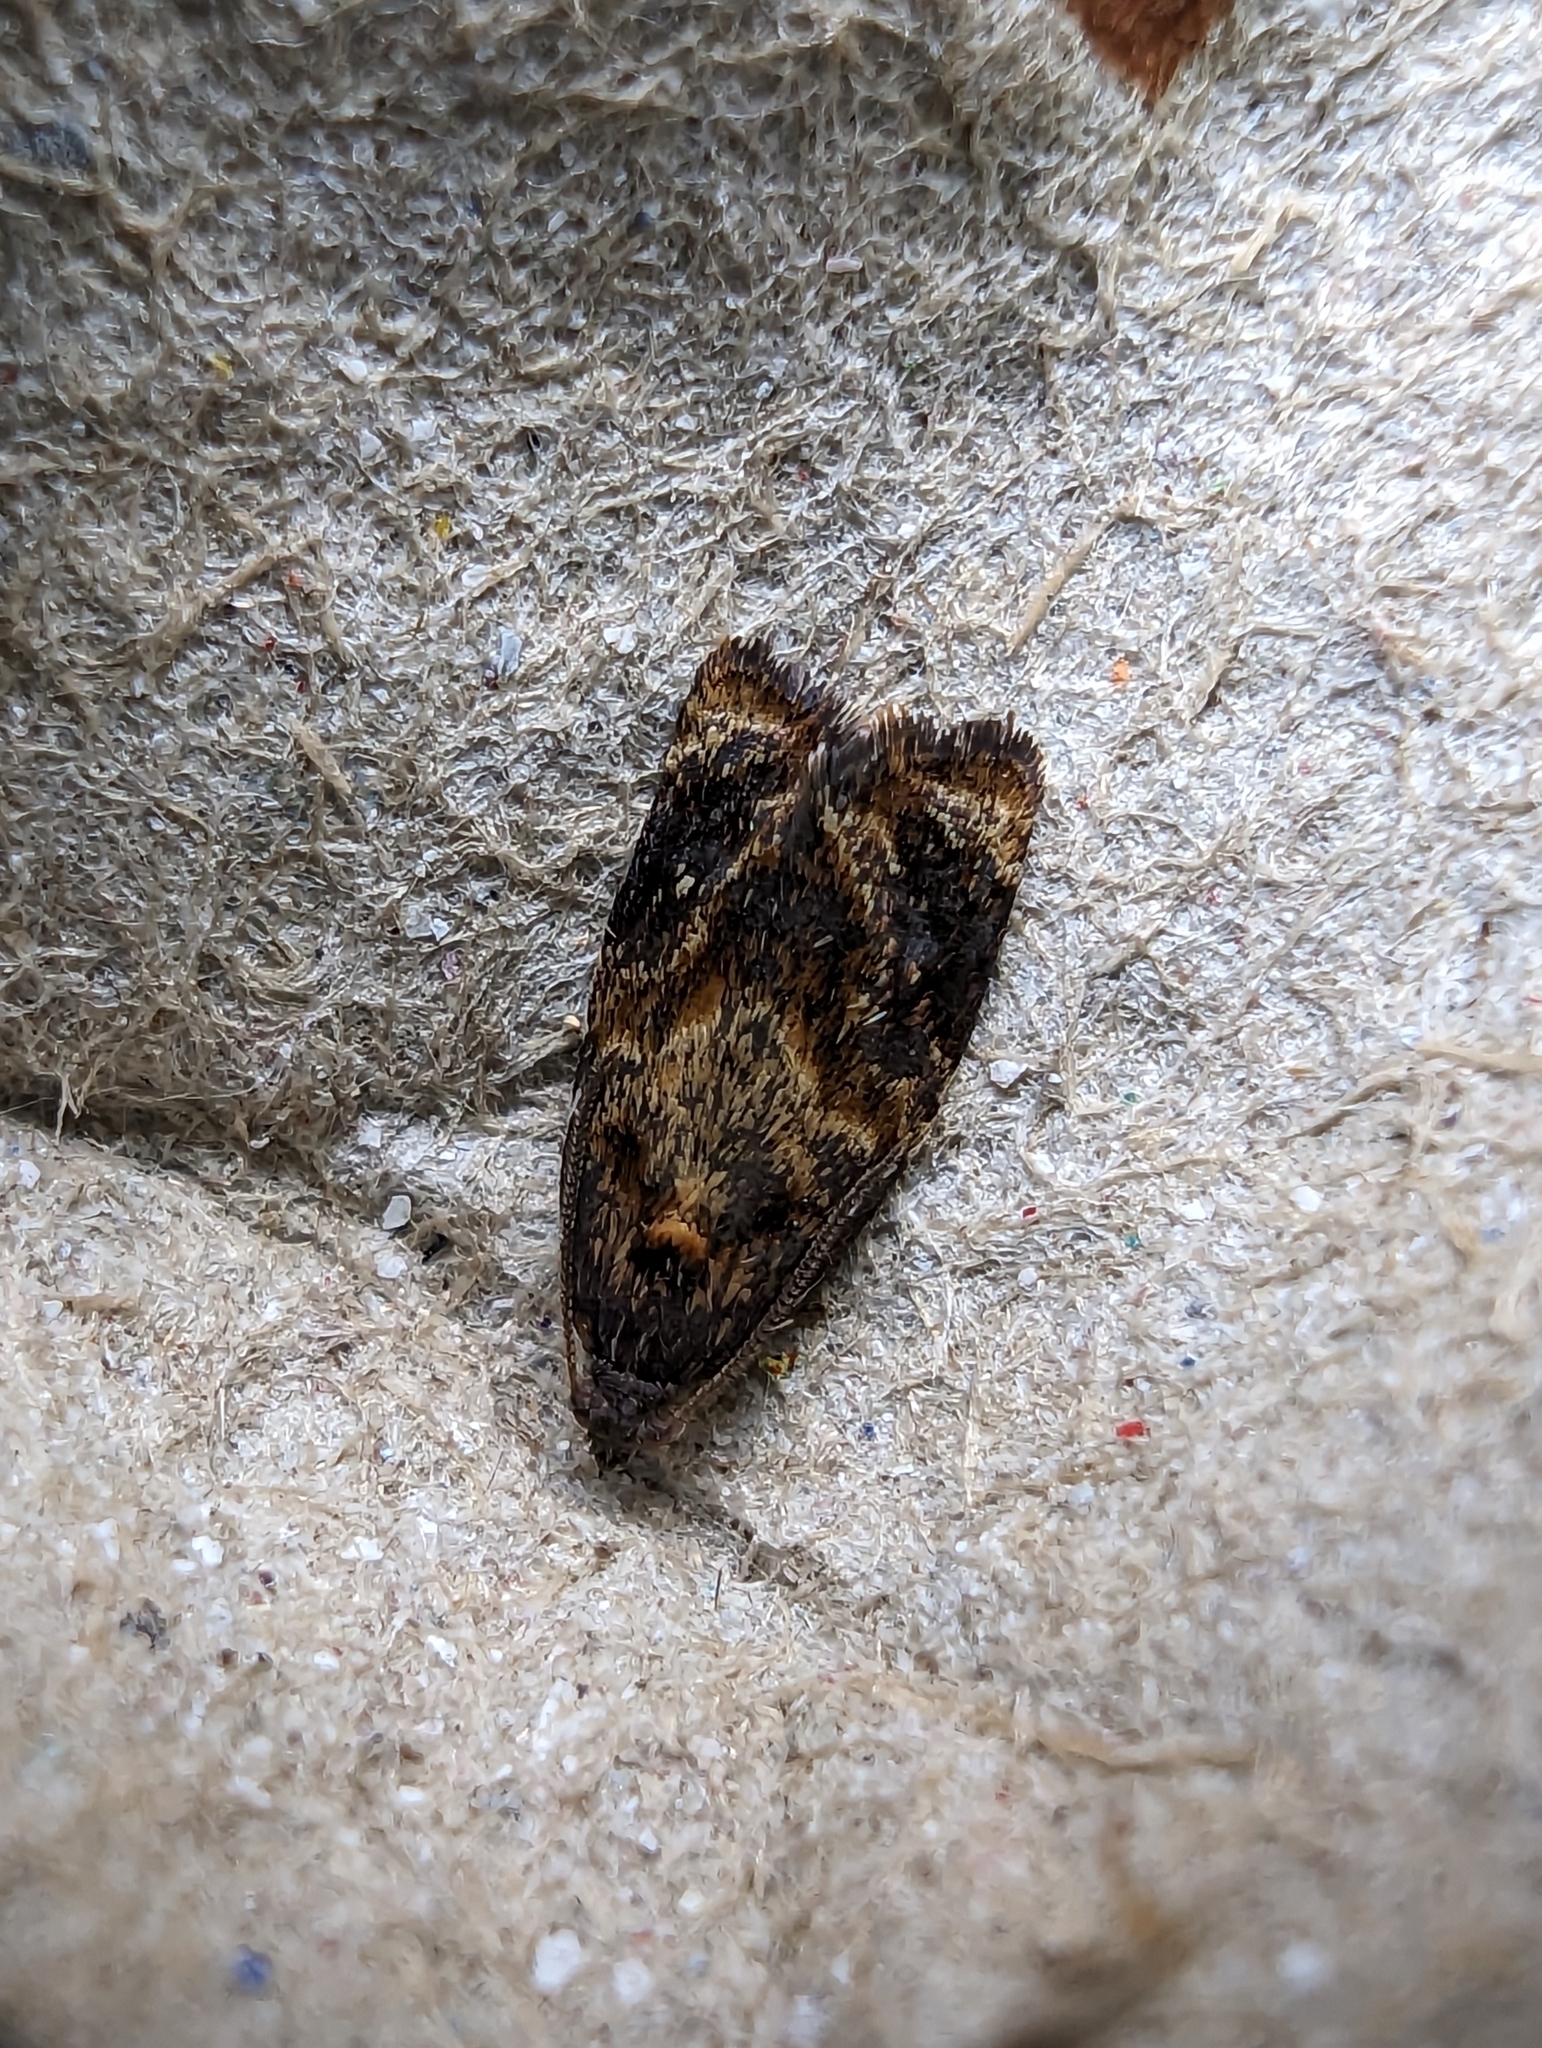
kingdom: Animalia
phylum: Arthropoda
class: Insecta
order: Lepidoptera
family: Tortricidae
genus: Ditula
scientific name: Ditula angustiorana
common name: Red-barred tortrix
